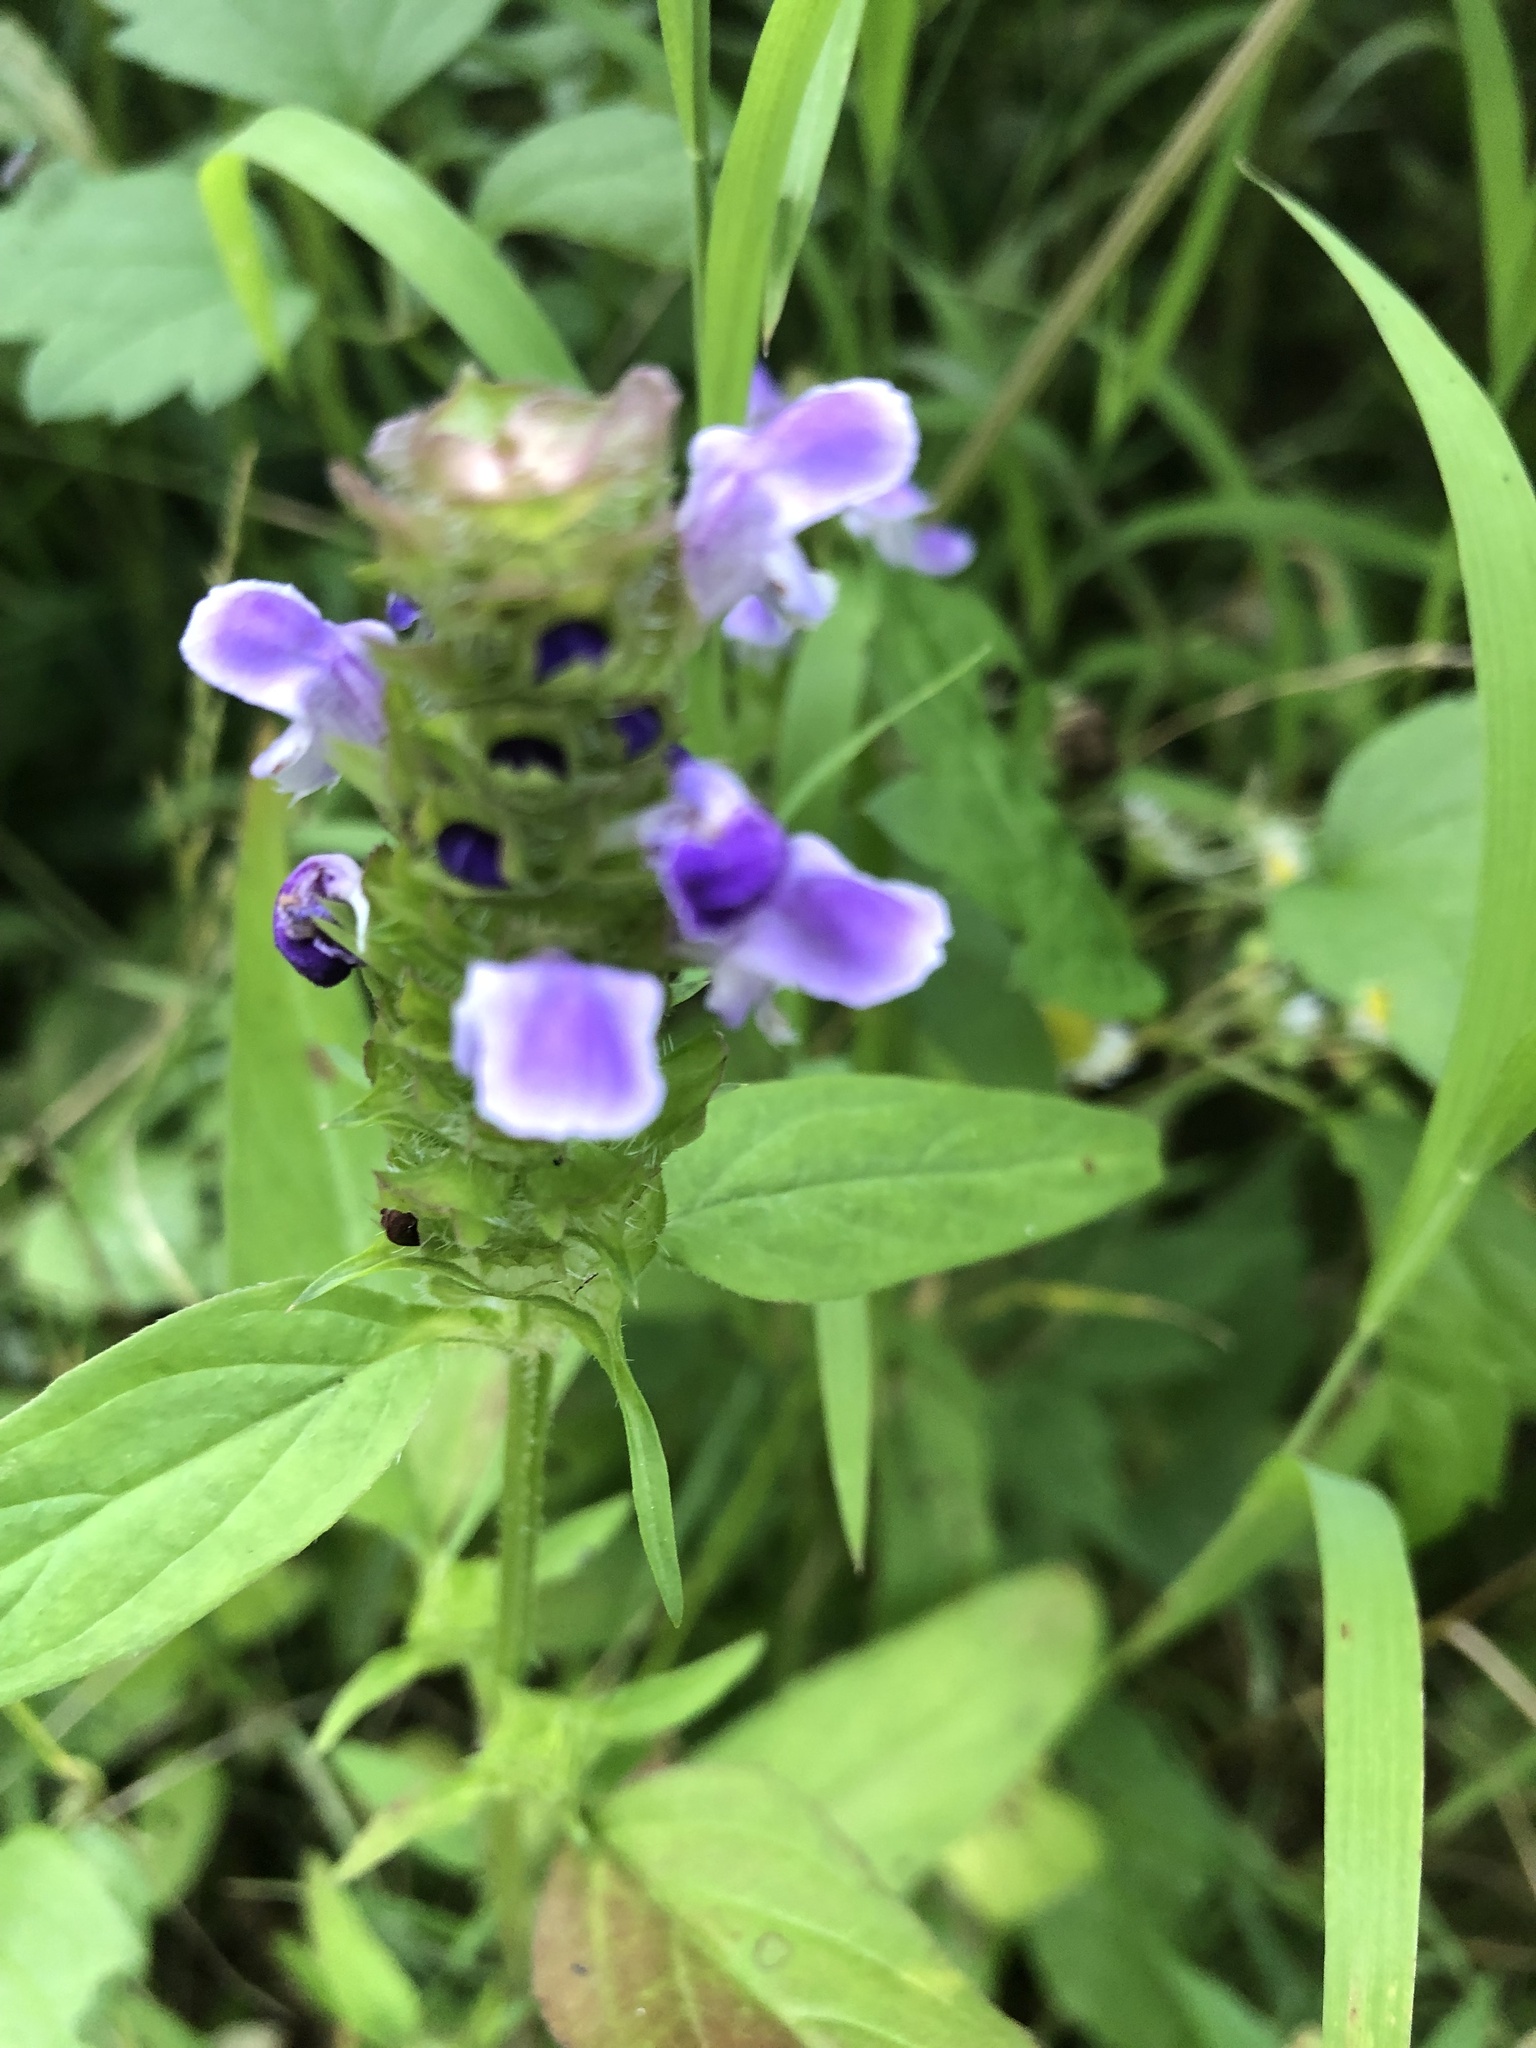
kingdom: Plantae
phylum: Tracheophyta
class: Magnoliopsida
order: Lamiales
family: Lamiaceae
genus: Prunella
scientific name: Prunella vulgaris
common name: Heal-all
